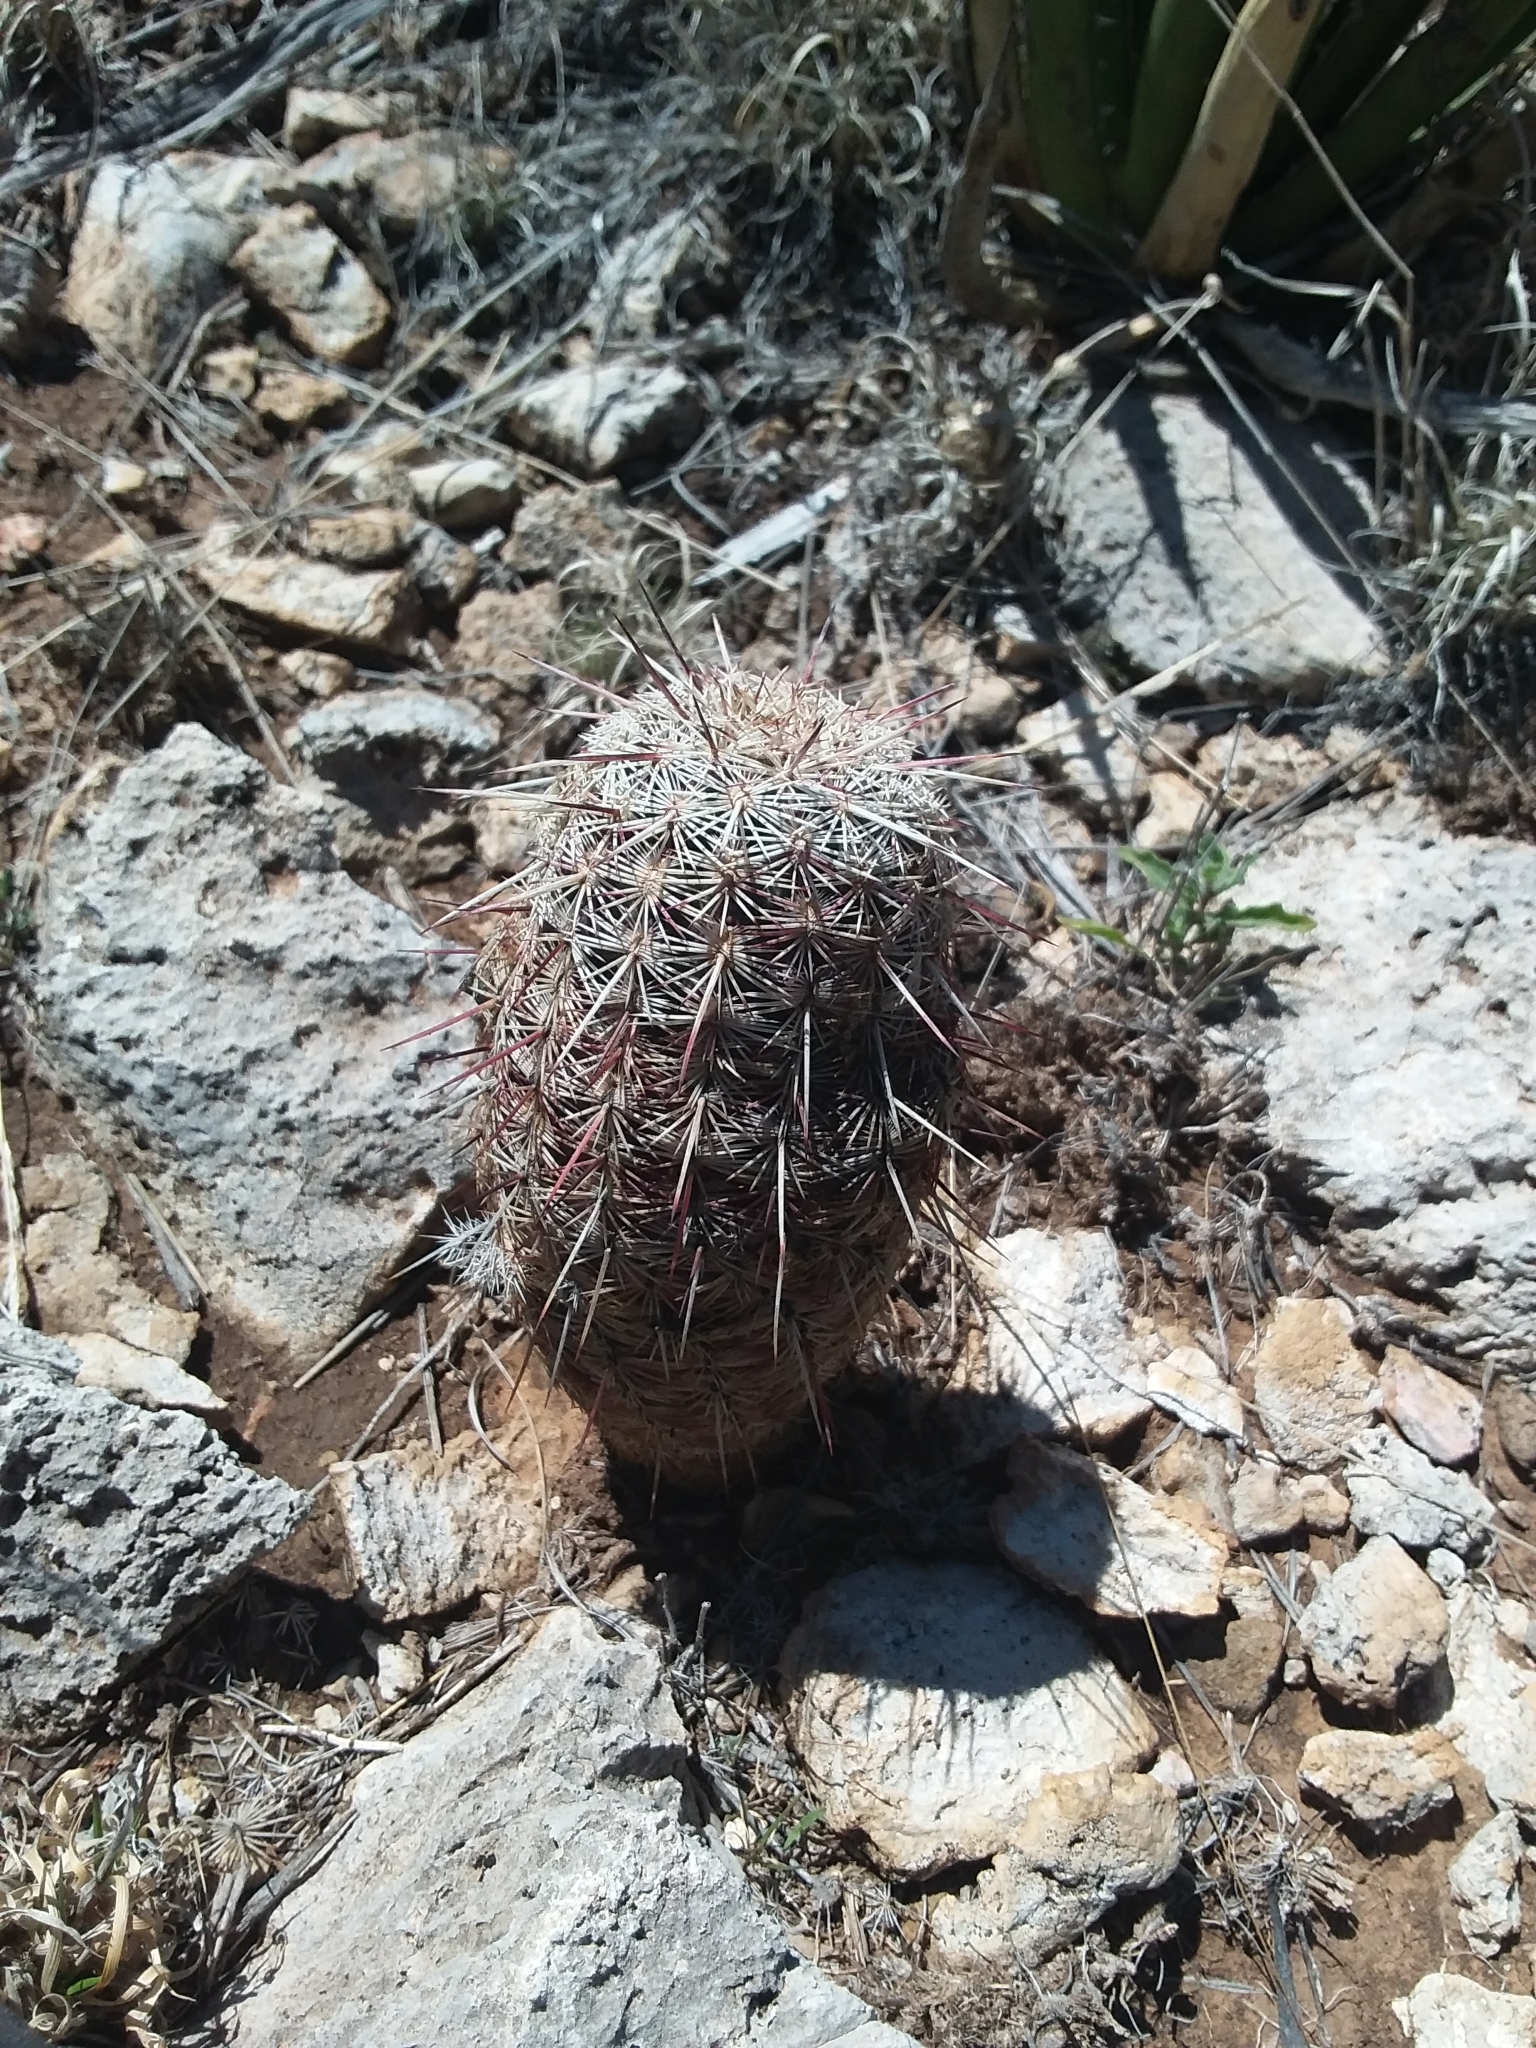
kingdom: Plantae
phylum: Tracheophyta
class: Magnoliopsida
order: Caryophyllales
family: Cactaceae
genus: Echinocereus
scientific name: Echinocereus viridiflorus
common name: Nylon hedgehog cactus
